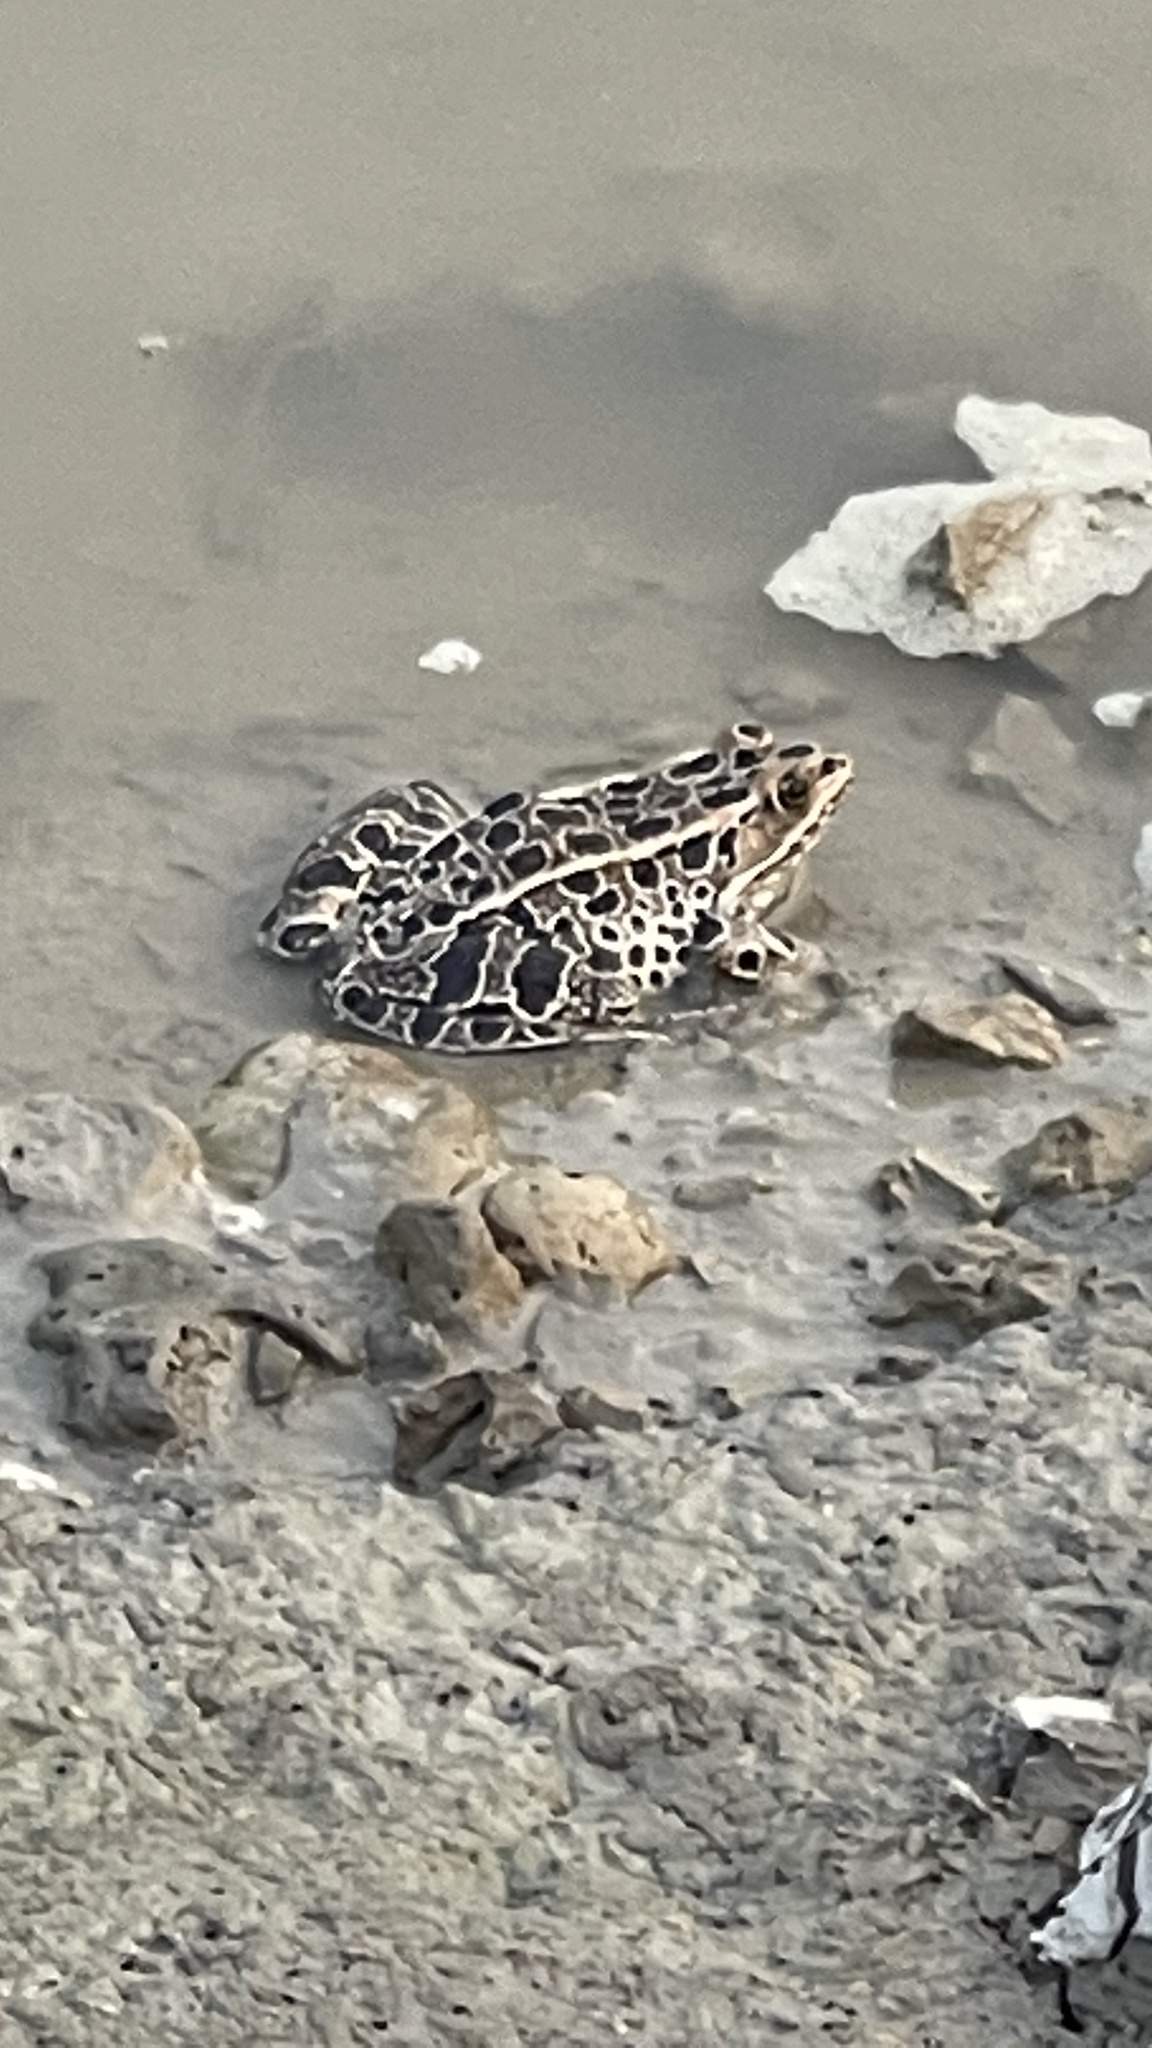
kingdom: Animalia
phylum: Chordata
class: Amphibia
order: Anura
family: Ranidae
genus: Lithobates
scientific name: Lithobates pipiens
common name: Northern leopard frog
